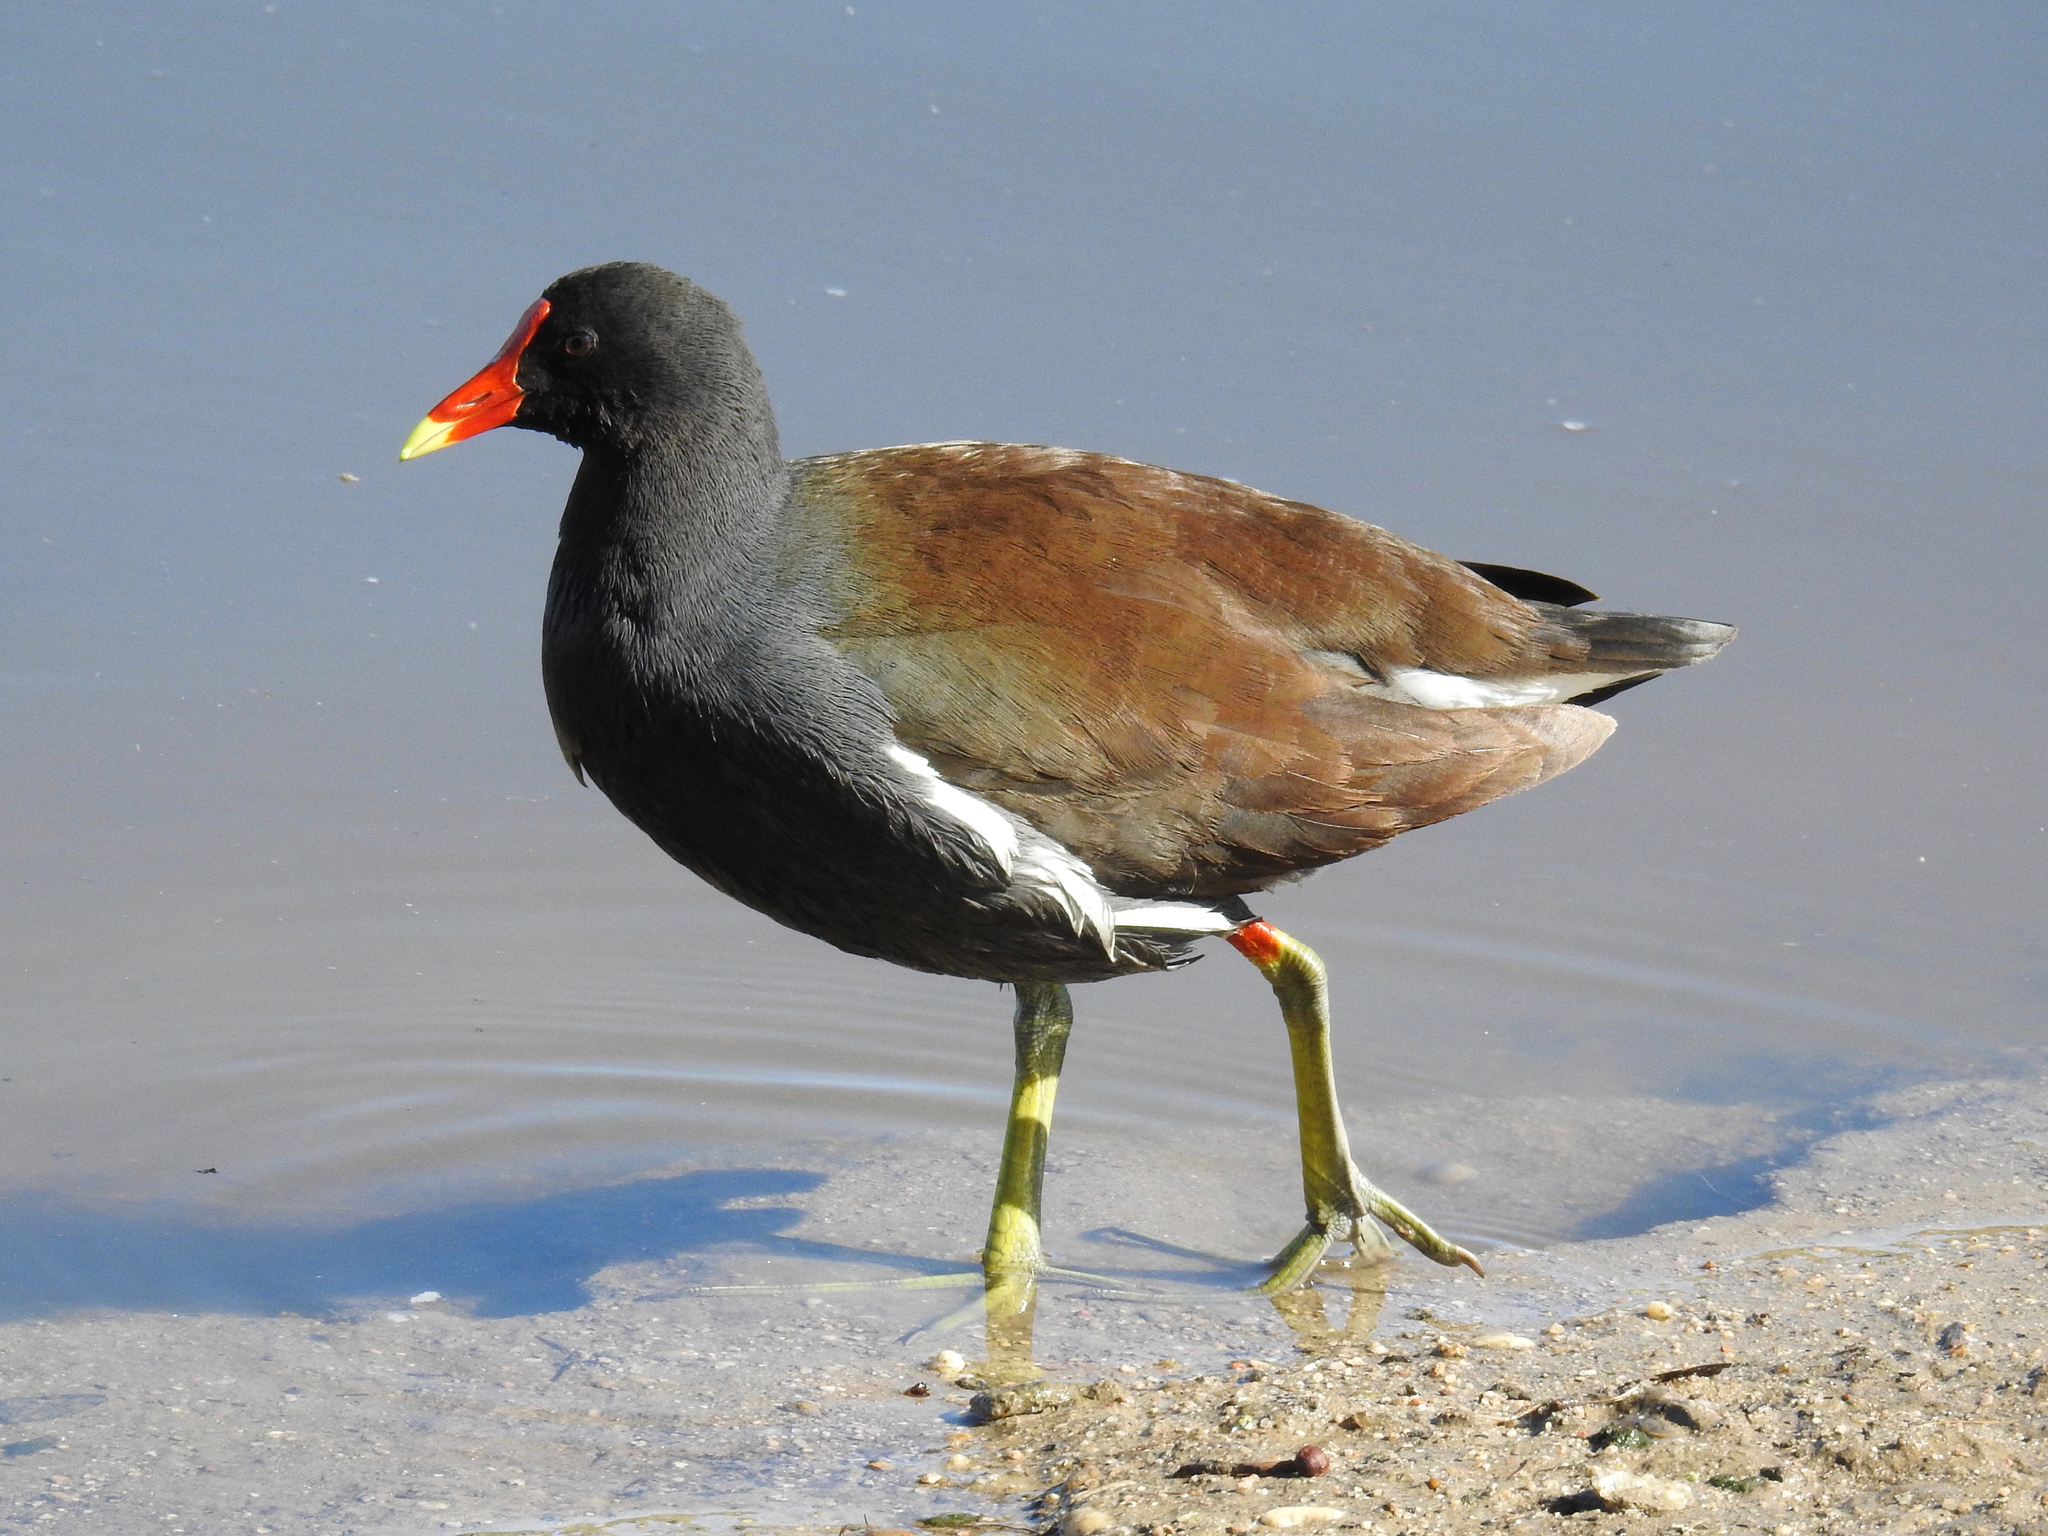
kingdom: Animalia
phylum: Chordata
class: Aves
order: Gruiformes
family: Rallidae
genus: Gallinula
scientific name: Gallinula chloropus
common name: Common moorhen
